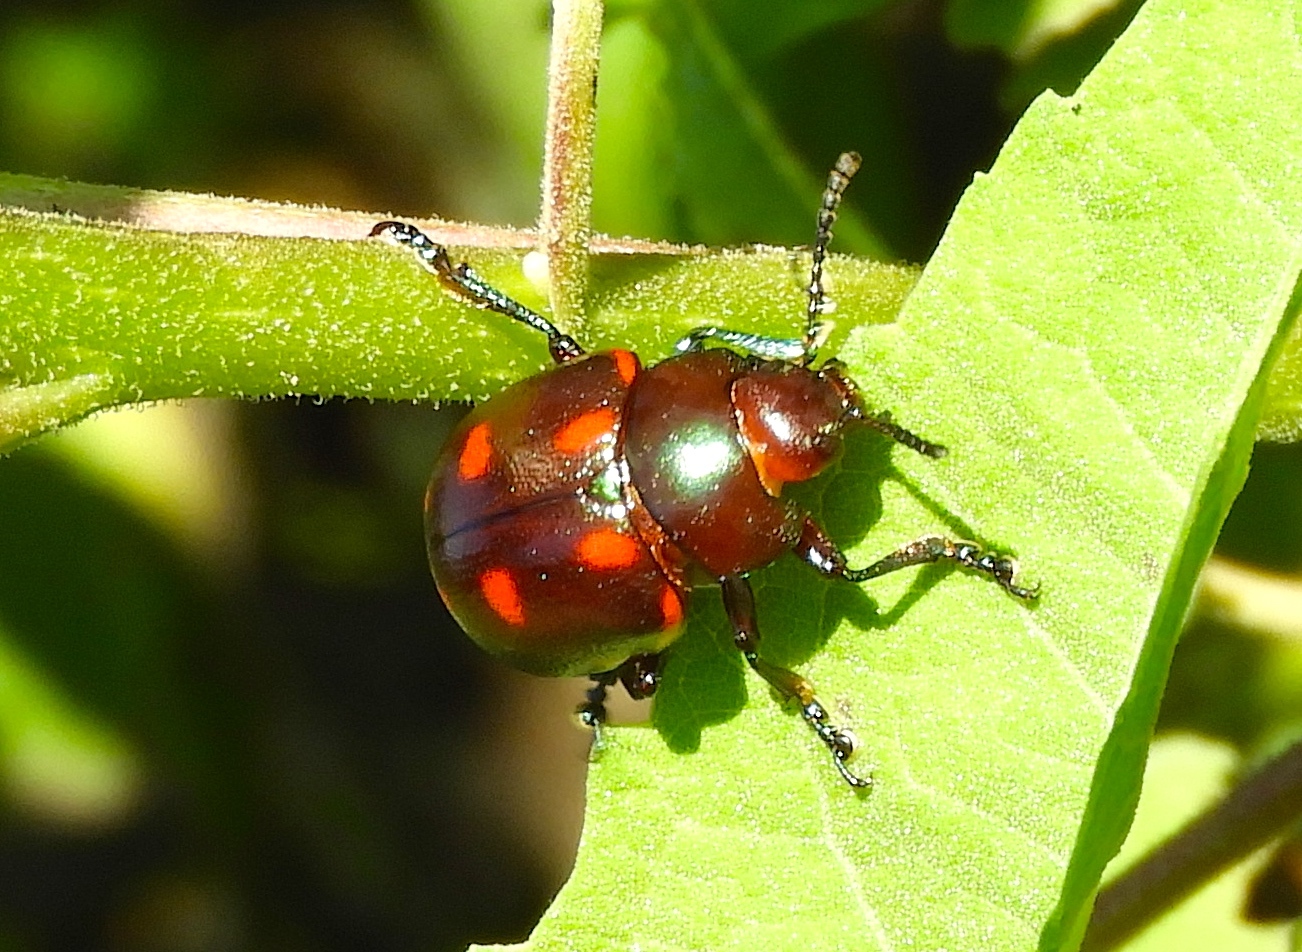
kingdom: Animalia
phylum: Arthropoda
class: Insecta
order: Coleoptera
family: Chrysomelidae
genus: Leptinotarsa
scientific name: Leptinotarsa behrensi
